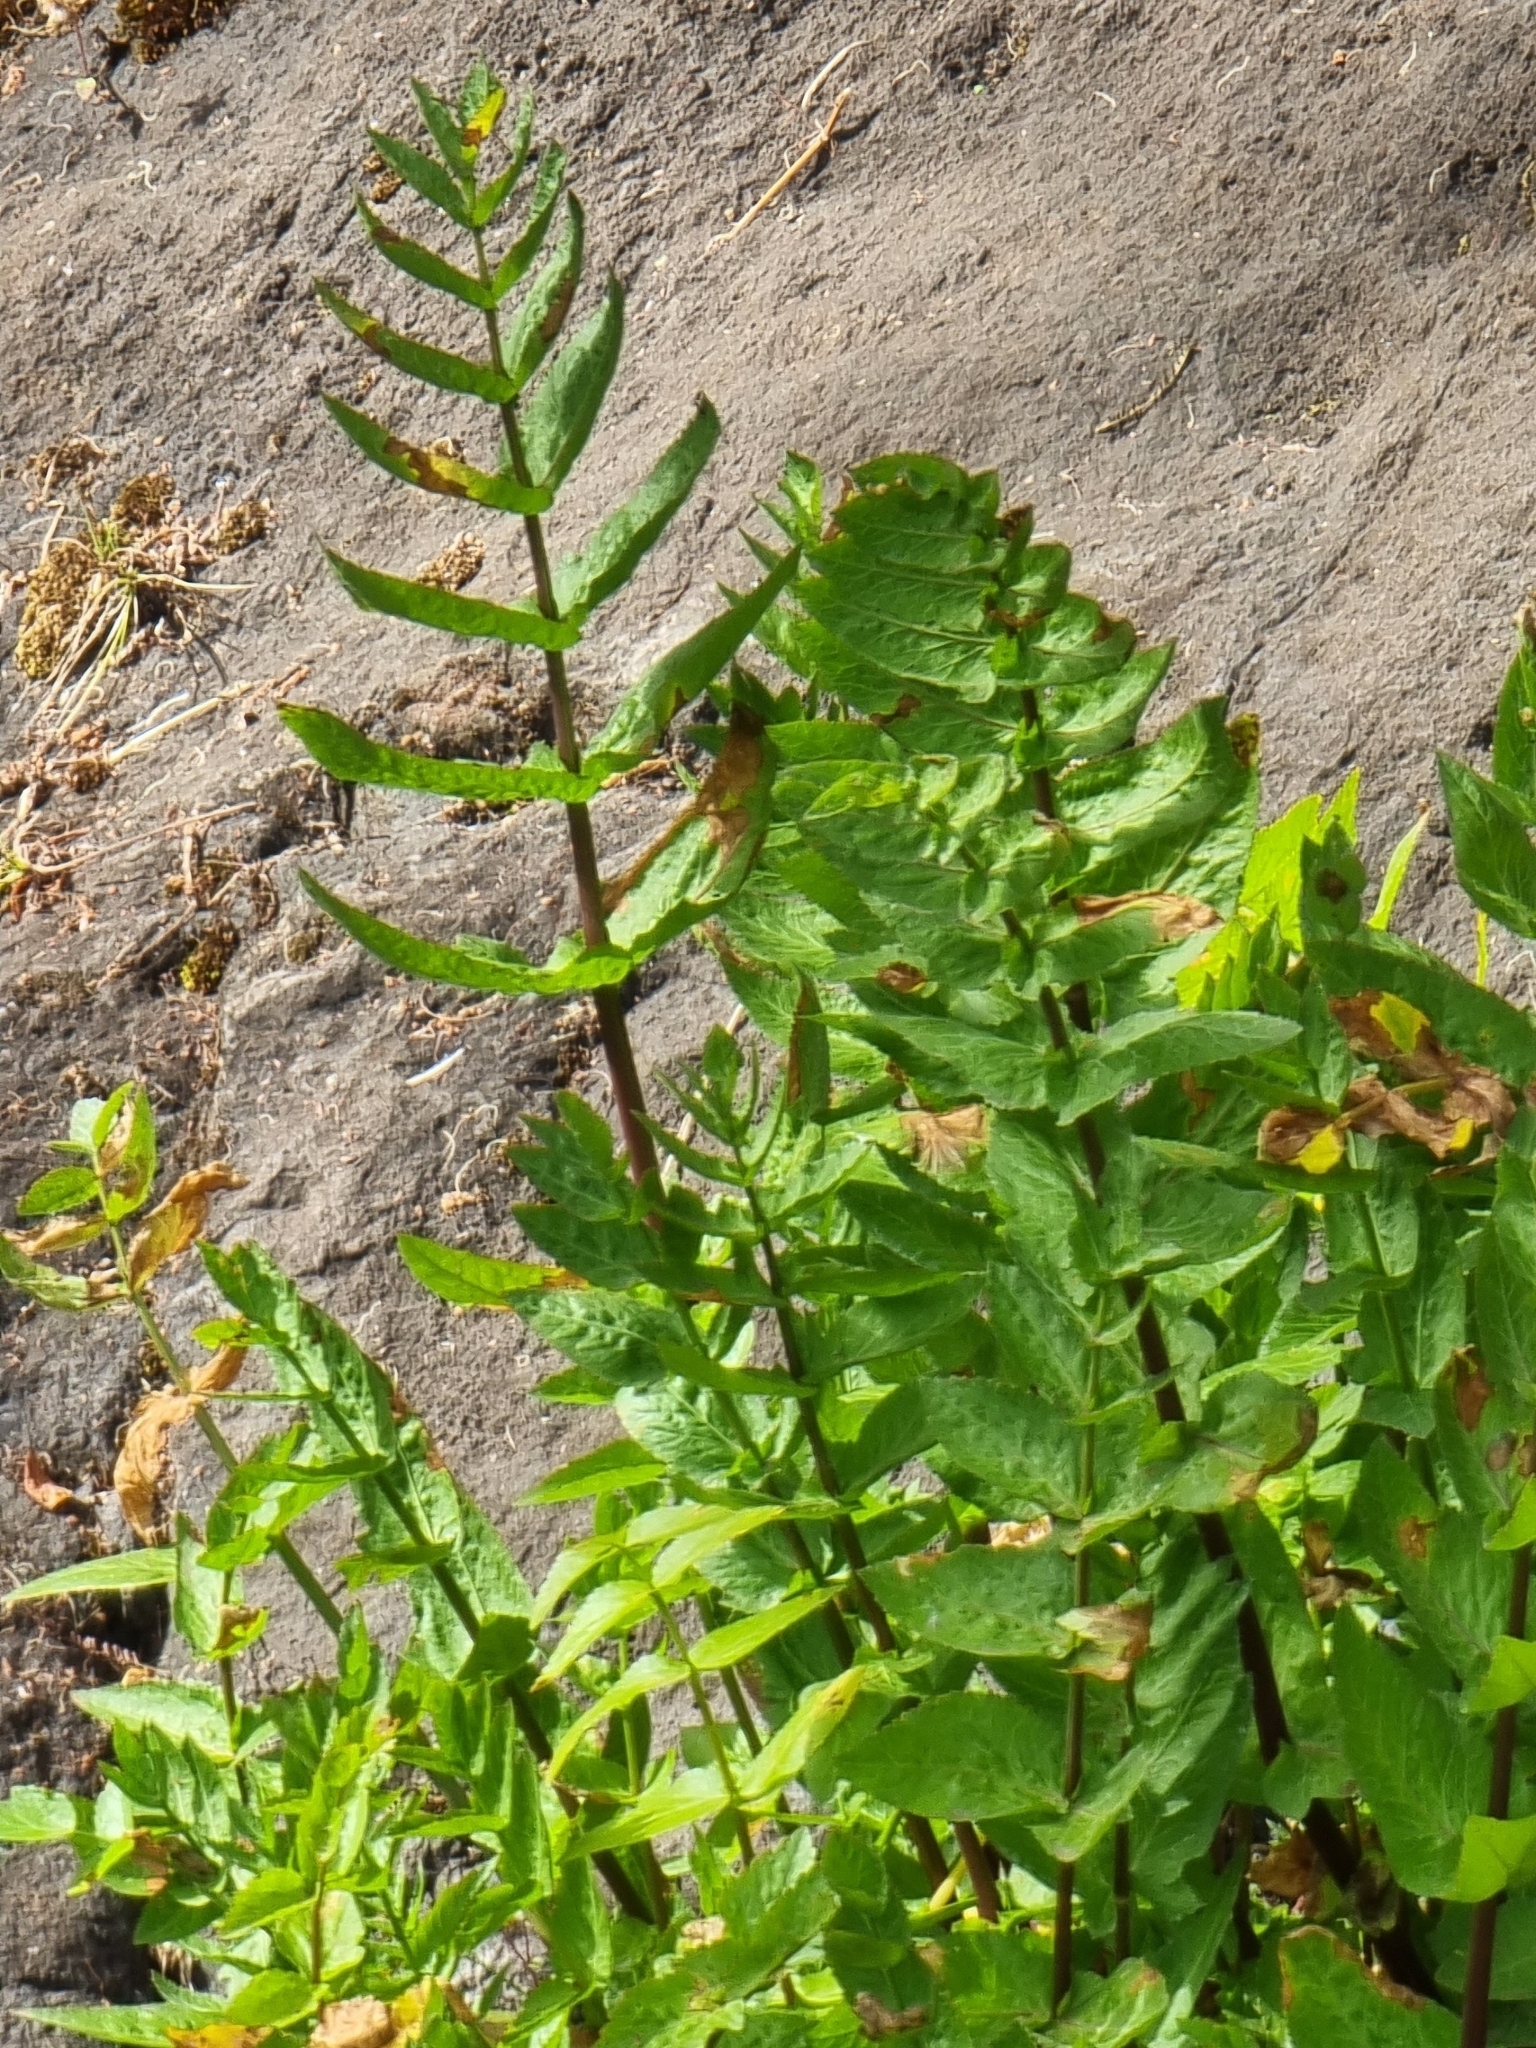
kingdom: Plantae
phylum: Tracheophyta
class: Magnoliopsida
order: Apiales
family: Apiaceae
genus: Helosciadium
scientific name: Helosciadium nodiflorum
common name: Fool's-watercress
